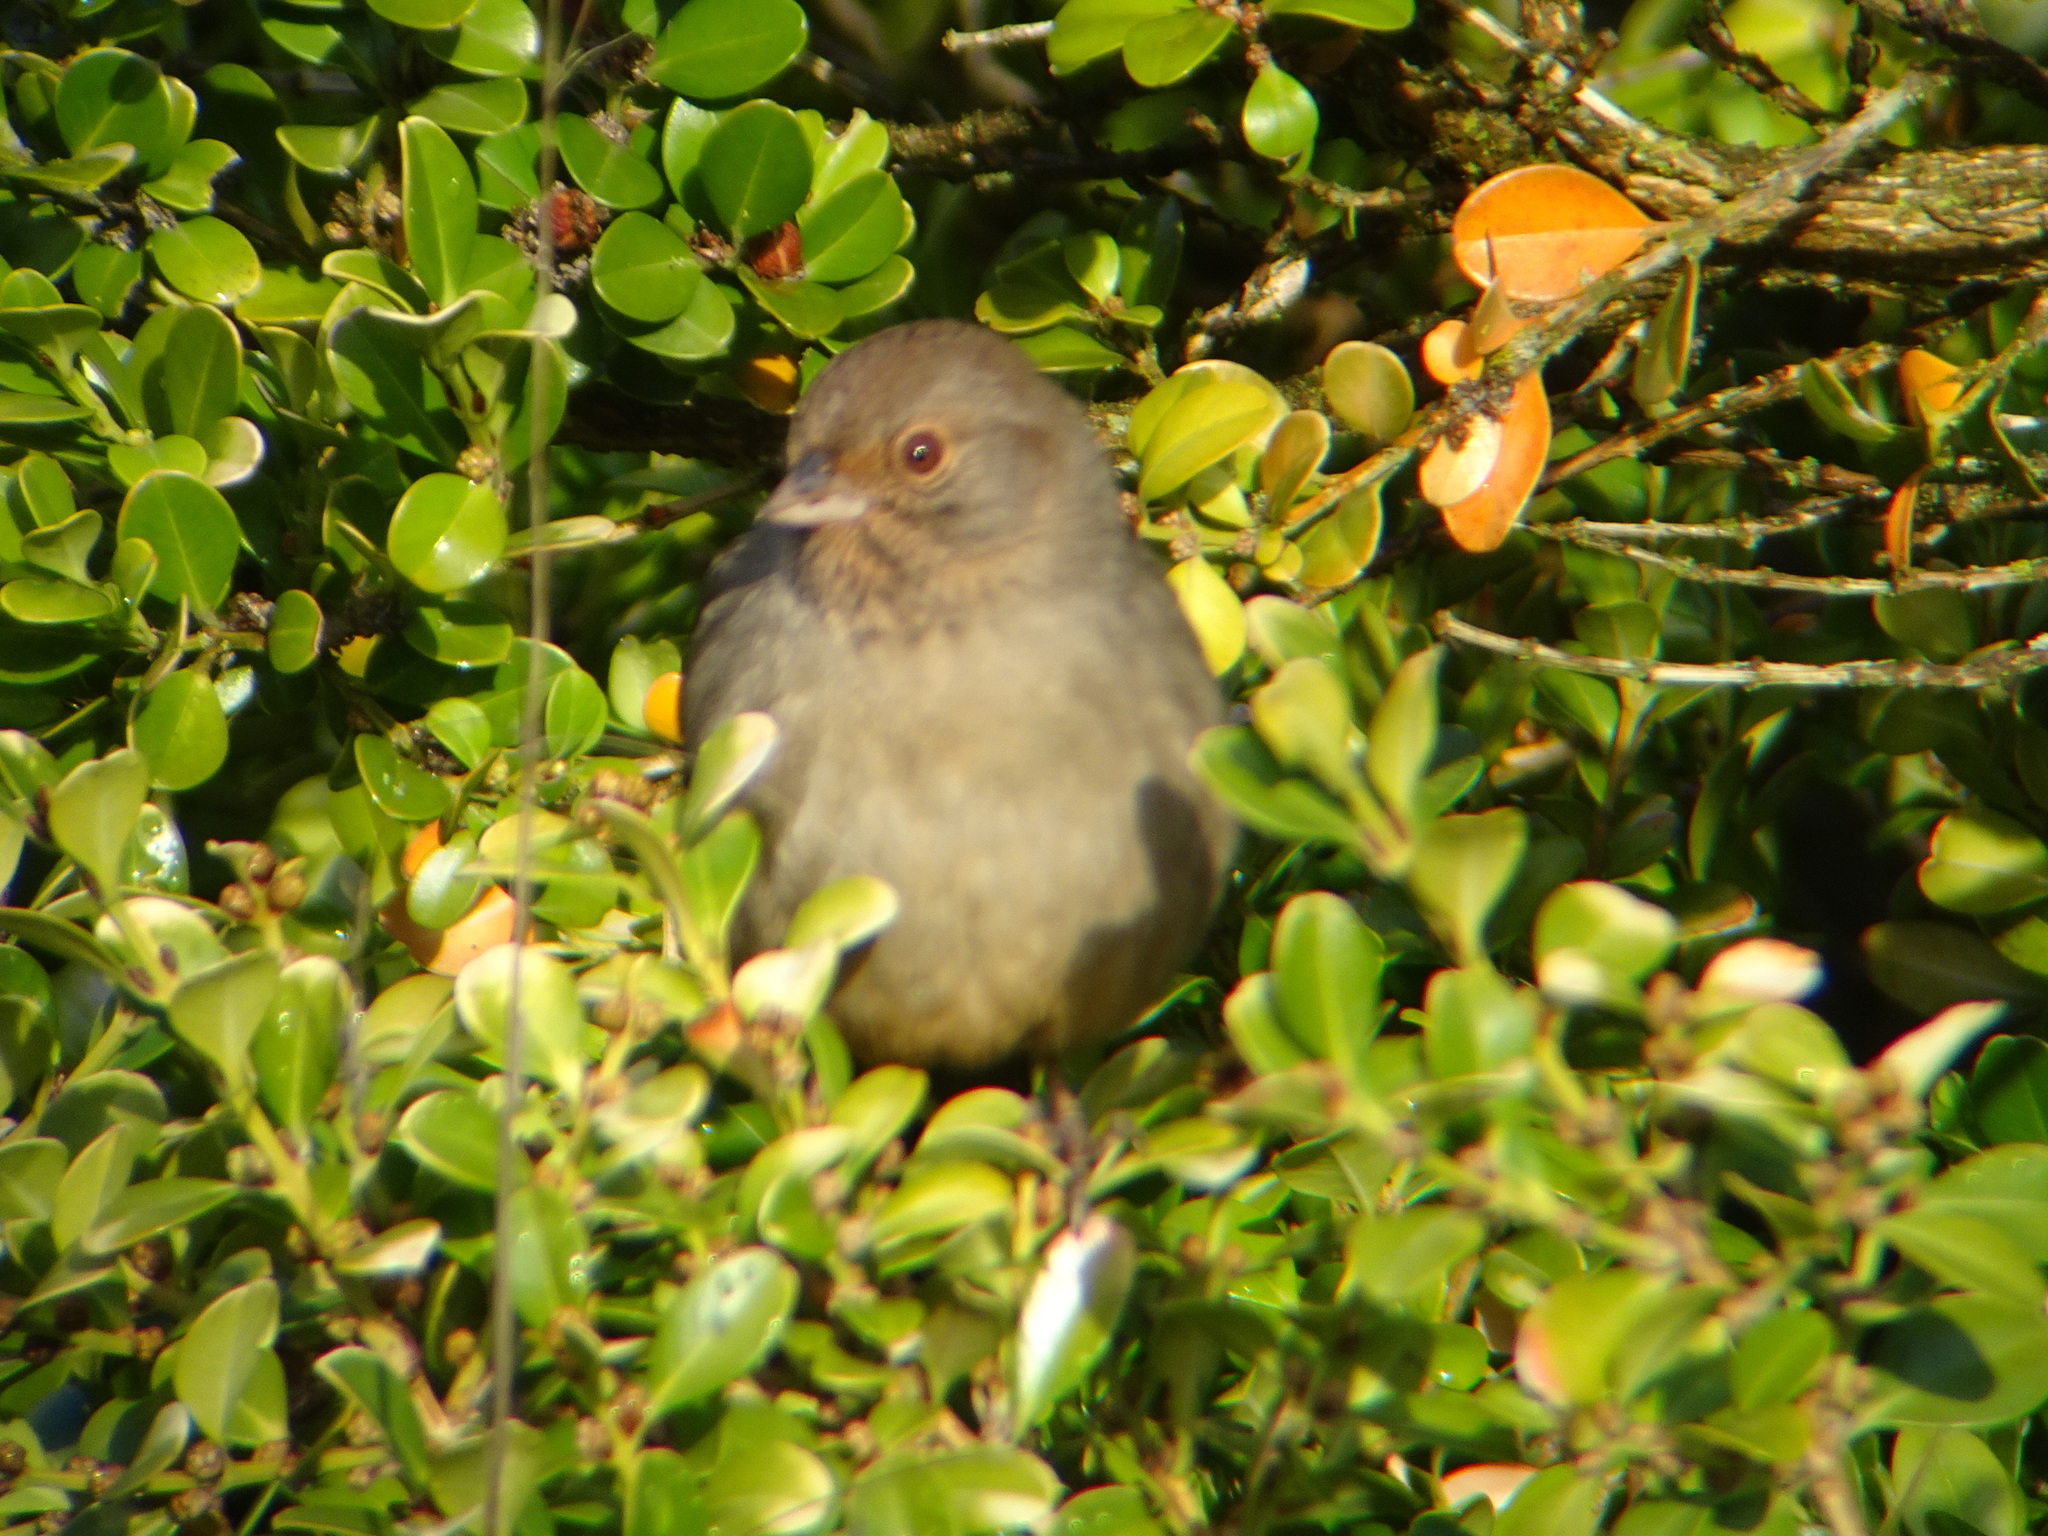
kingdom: Animalia
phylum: Chordata
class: Aves
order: Passeriformes
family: Passerellidae
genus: Melozone
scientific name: Melozone crissalis
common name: California towhee
